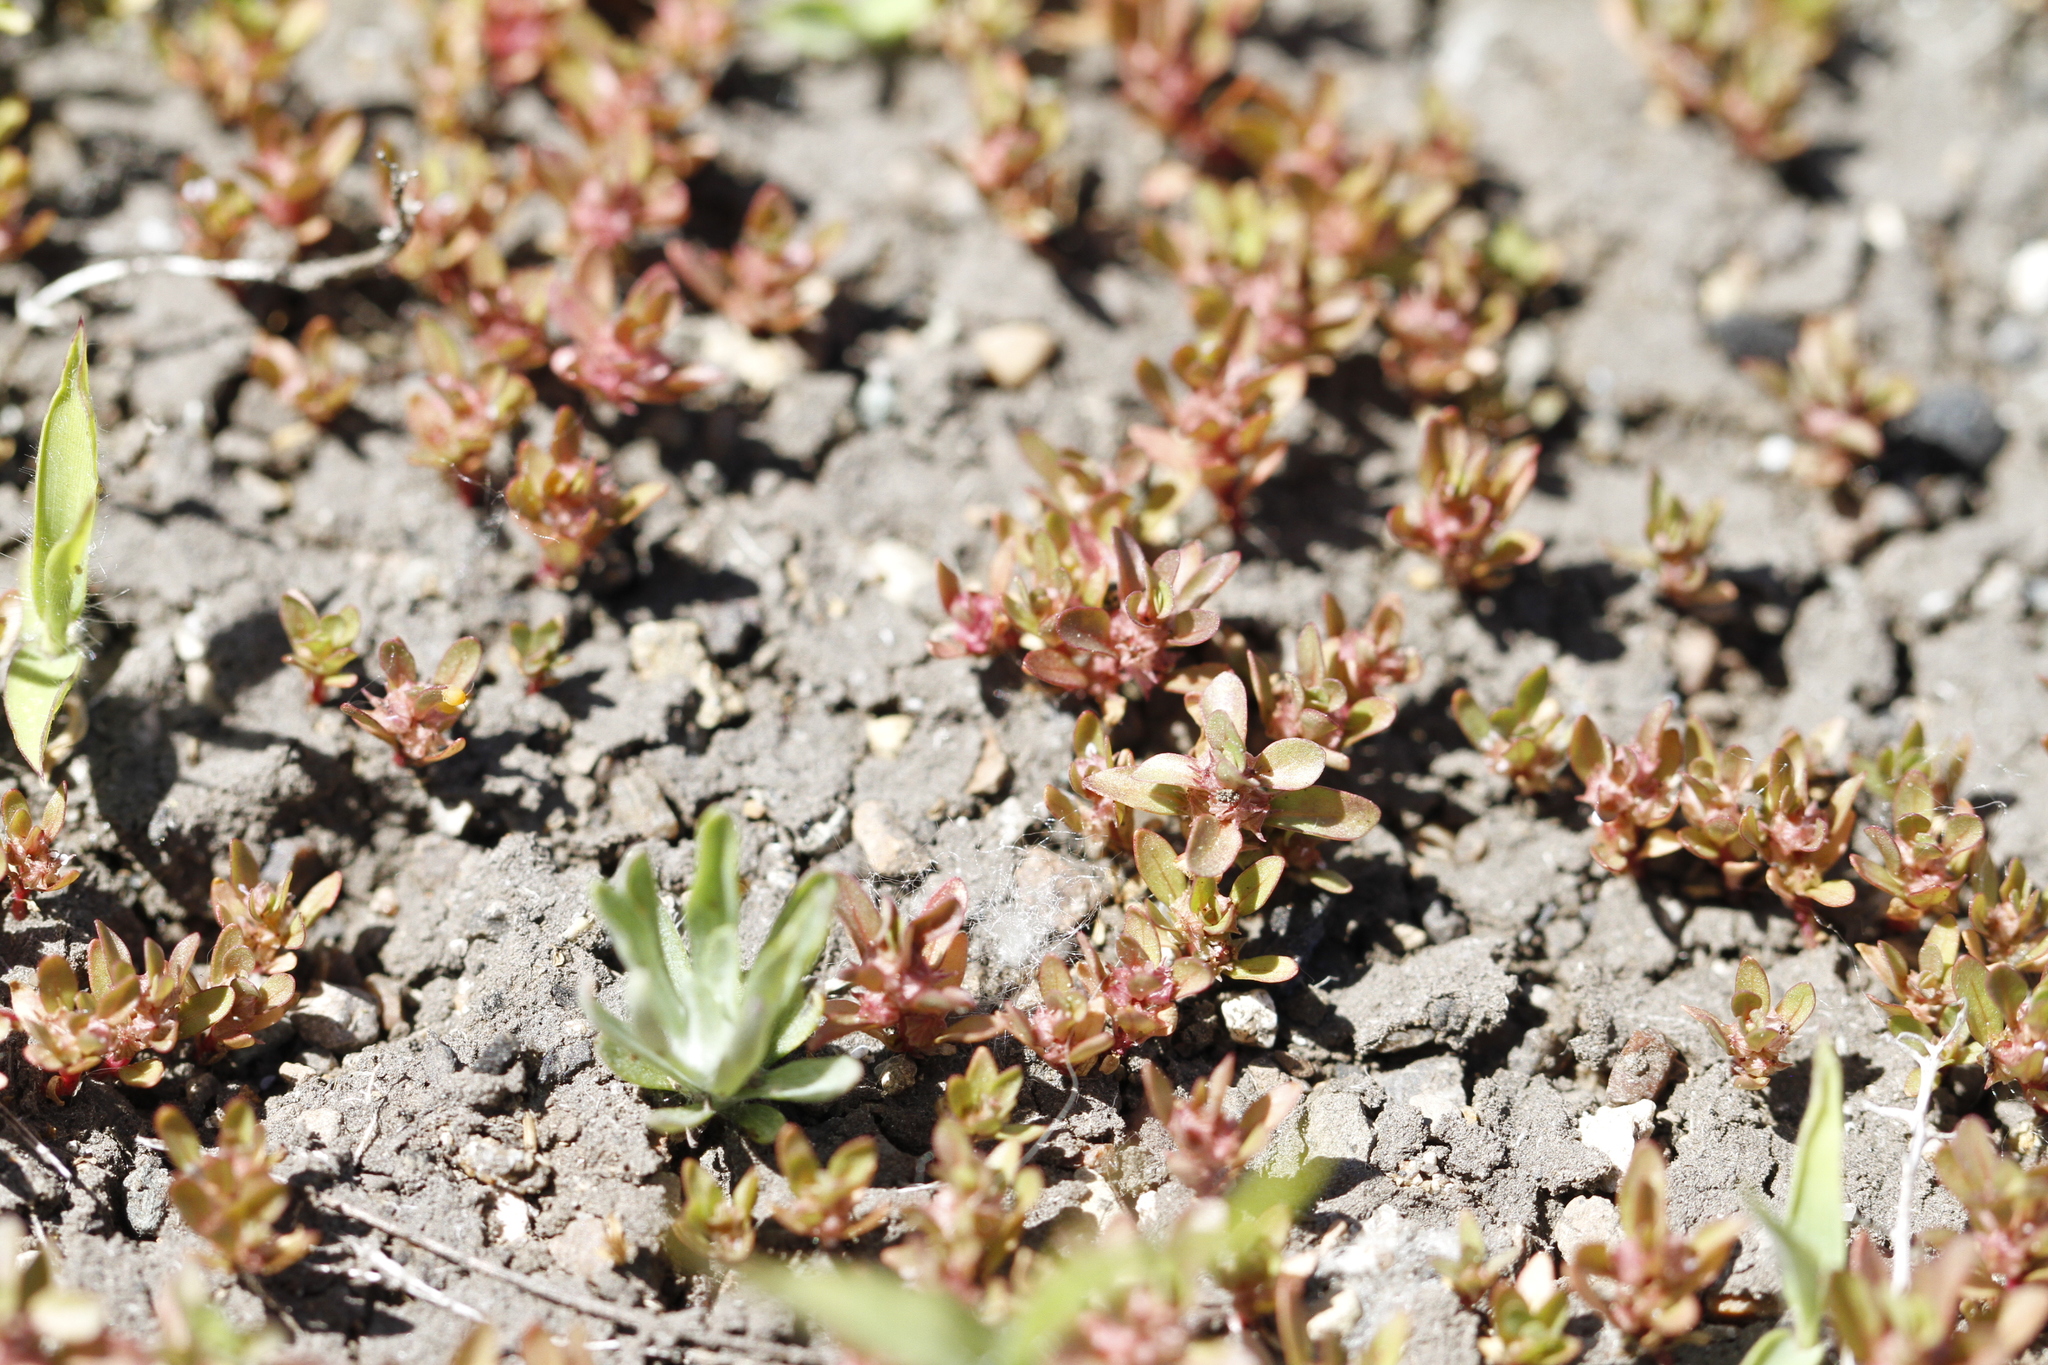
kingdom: Plantae
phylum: Tracheophyta
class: Magnoliopsida
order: Myrtales
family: Lythraceae
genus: Lythrum
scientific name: Lythrum portula
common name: Water purslane
